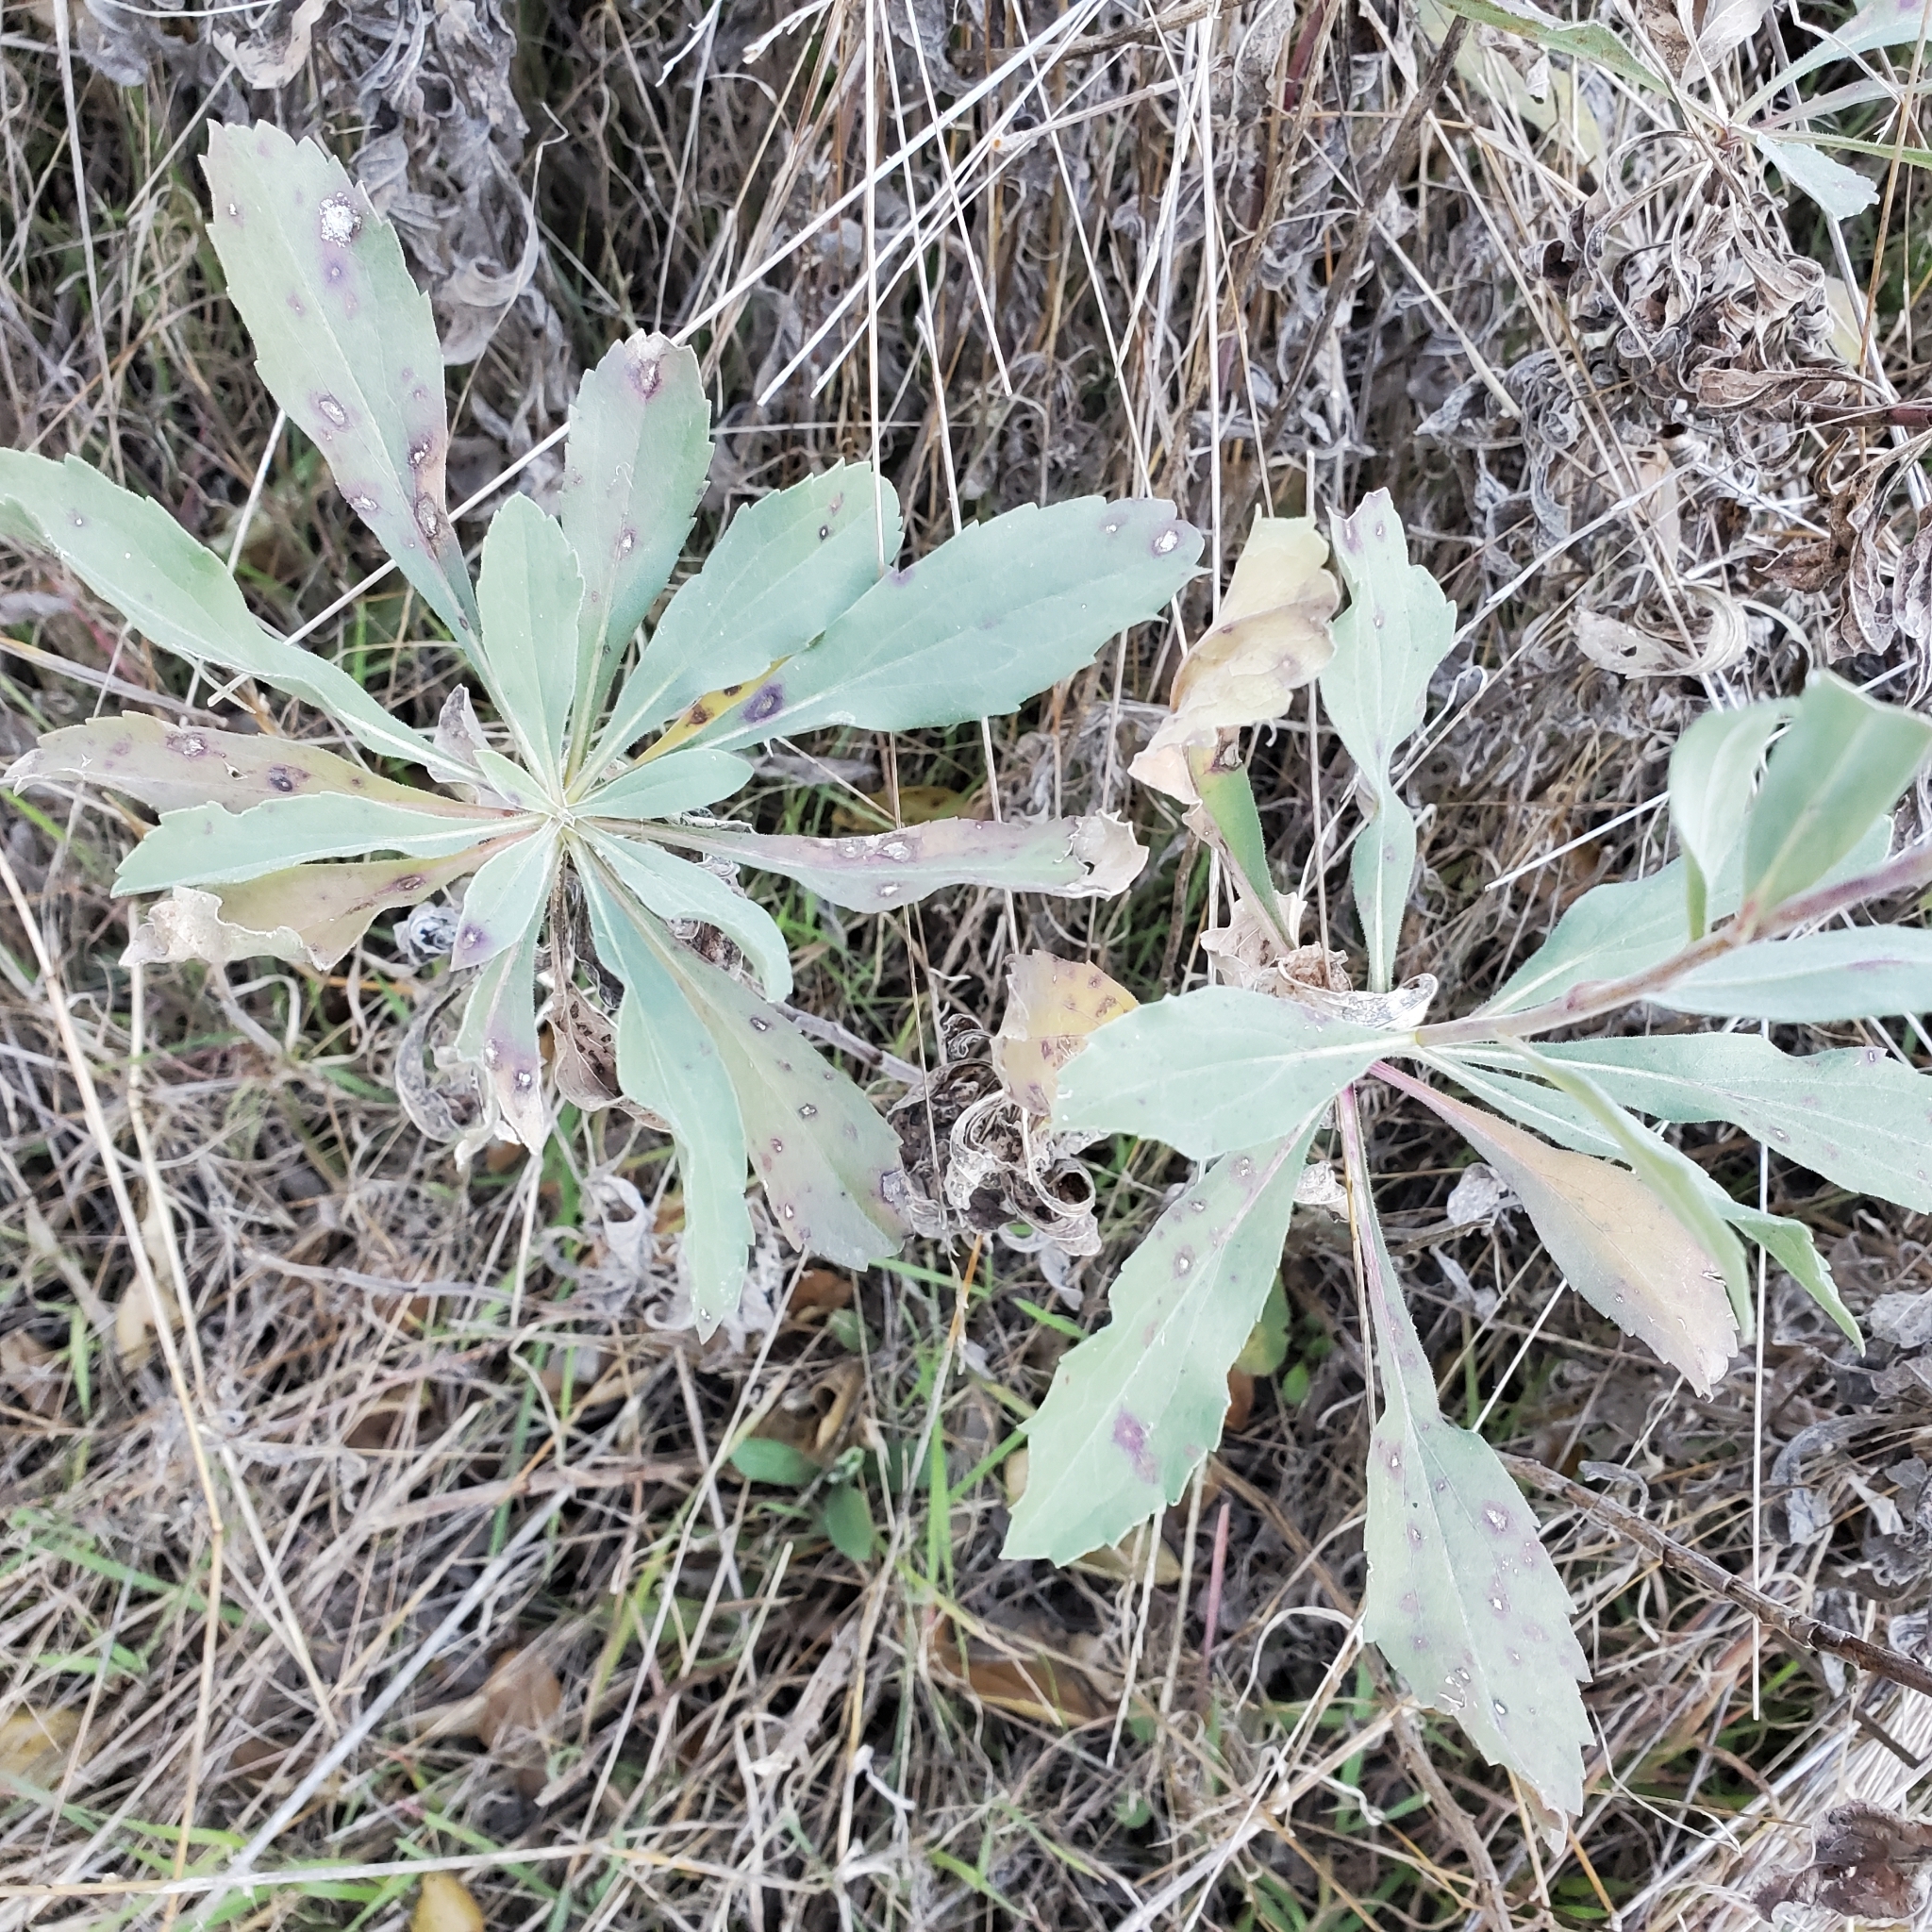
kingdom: Plantae
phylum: Tracheophyta
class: Magnoliopsida
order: Asterales
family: Asteraceae
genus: Solidago
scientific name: Solidago californica
